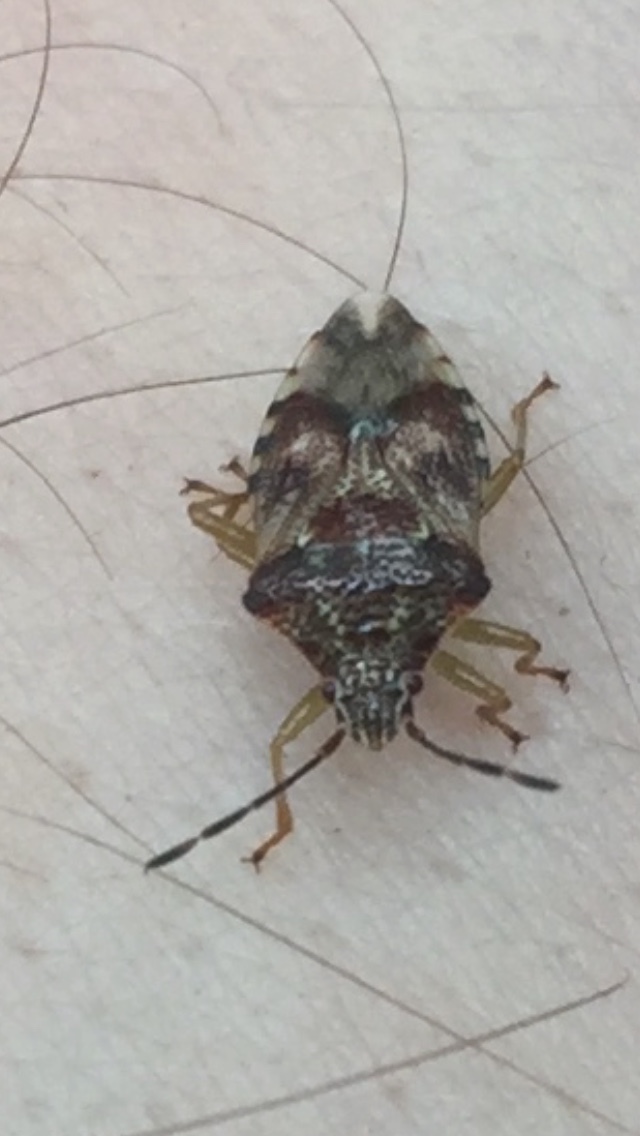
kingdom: Animalia
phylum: Arthropoda
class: Insecta
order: Hemiptera
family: Acanthosomatidae
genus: Elasmucha
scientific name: Elasmucha lateralis
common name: Shield bug
